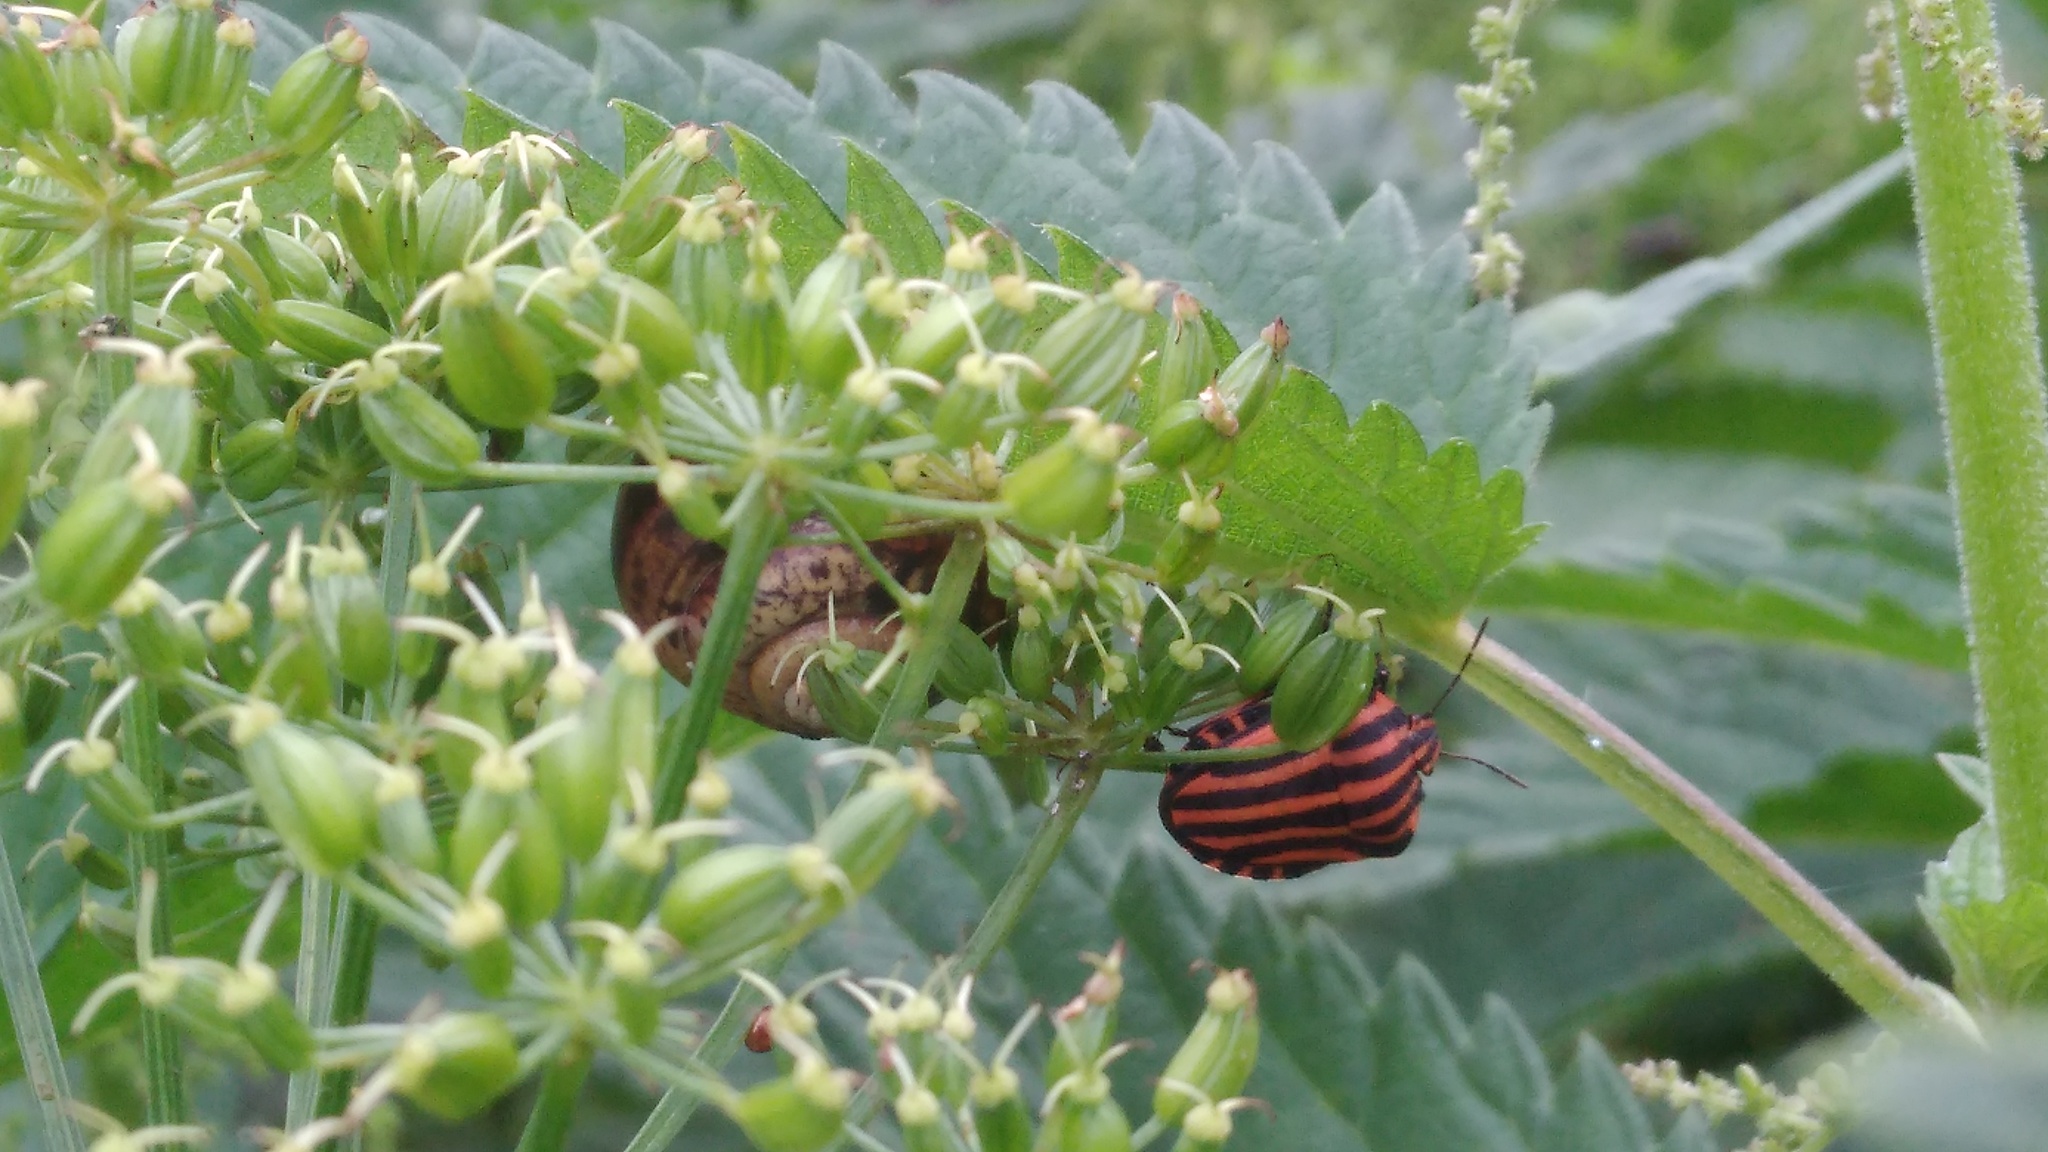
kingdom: Animalia
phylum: Arthropoda
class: Insecta
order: Hemiptera
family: Pentatomidae
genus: Graphosoma
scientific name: Graphosoma italicum
